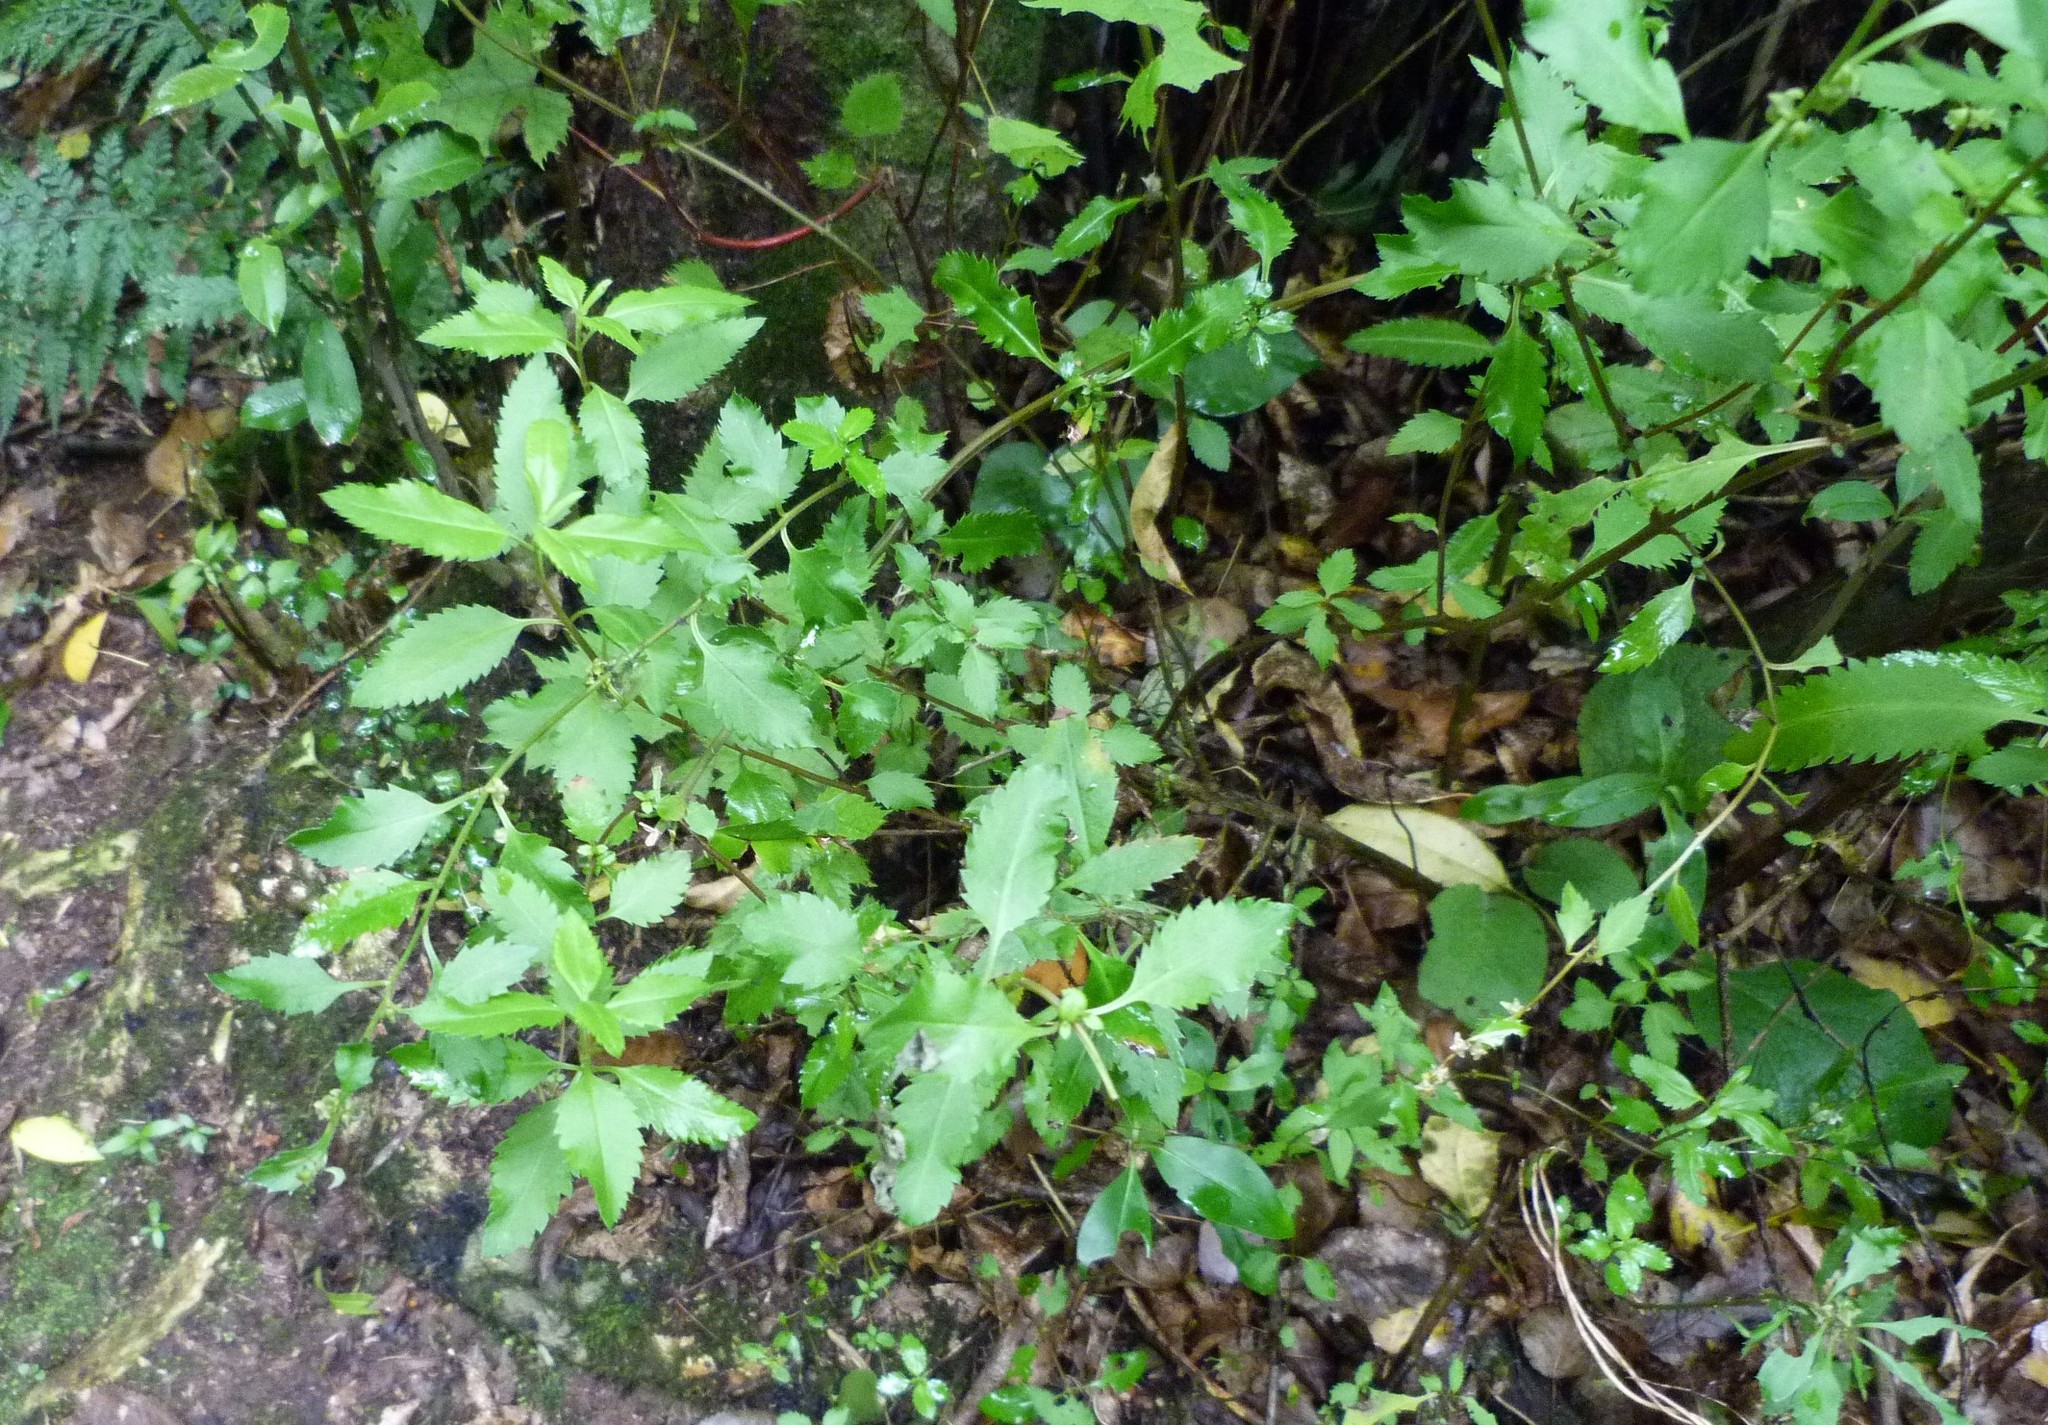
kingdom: Plantae
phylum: Tracheophyta
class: Magnoliopsida
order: Saxifragales
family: Haloragaceae
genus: Haloragis
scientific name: Haloragis erecta
